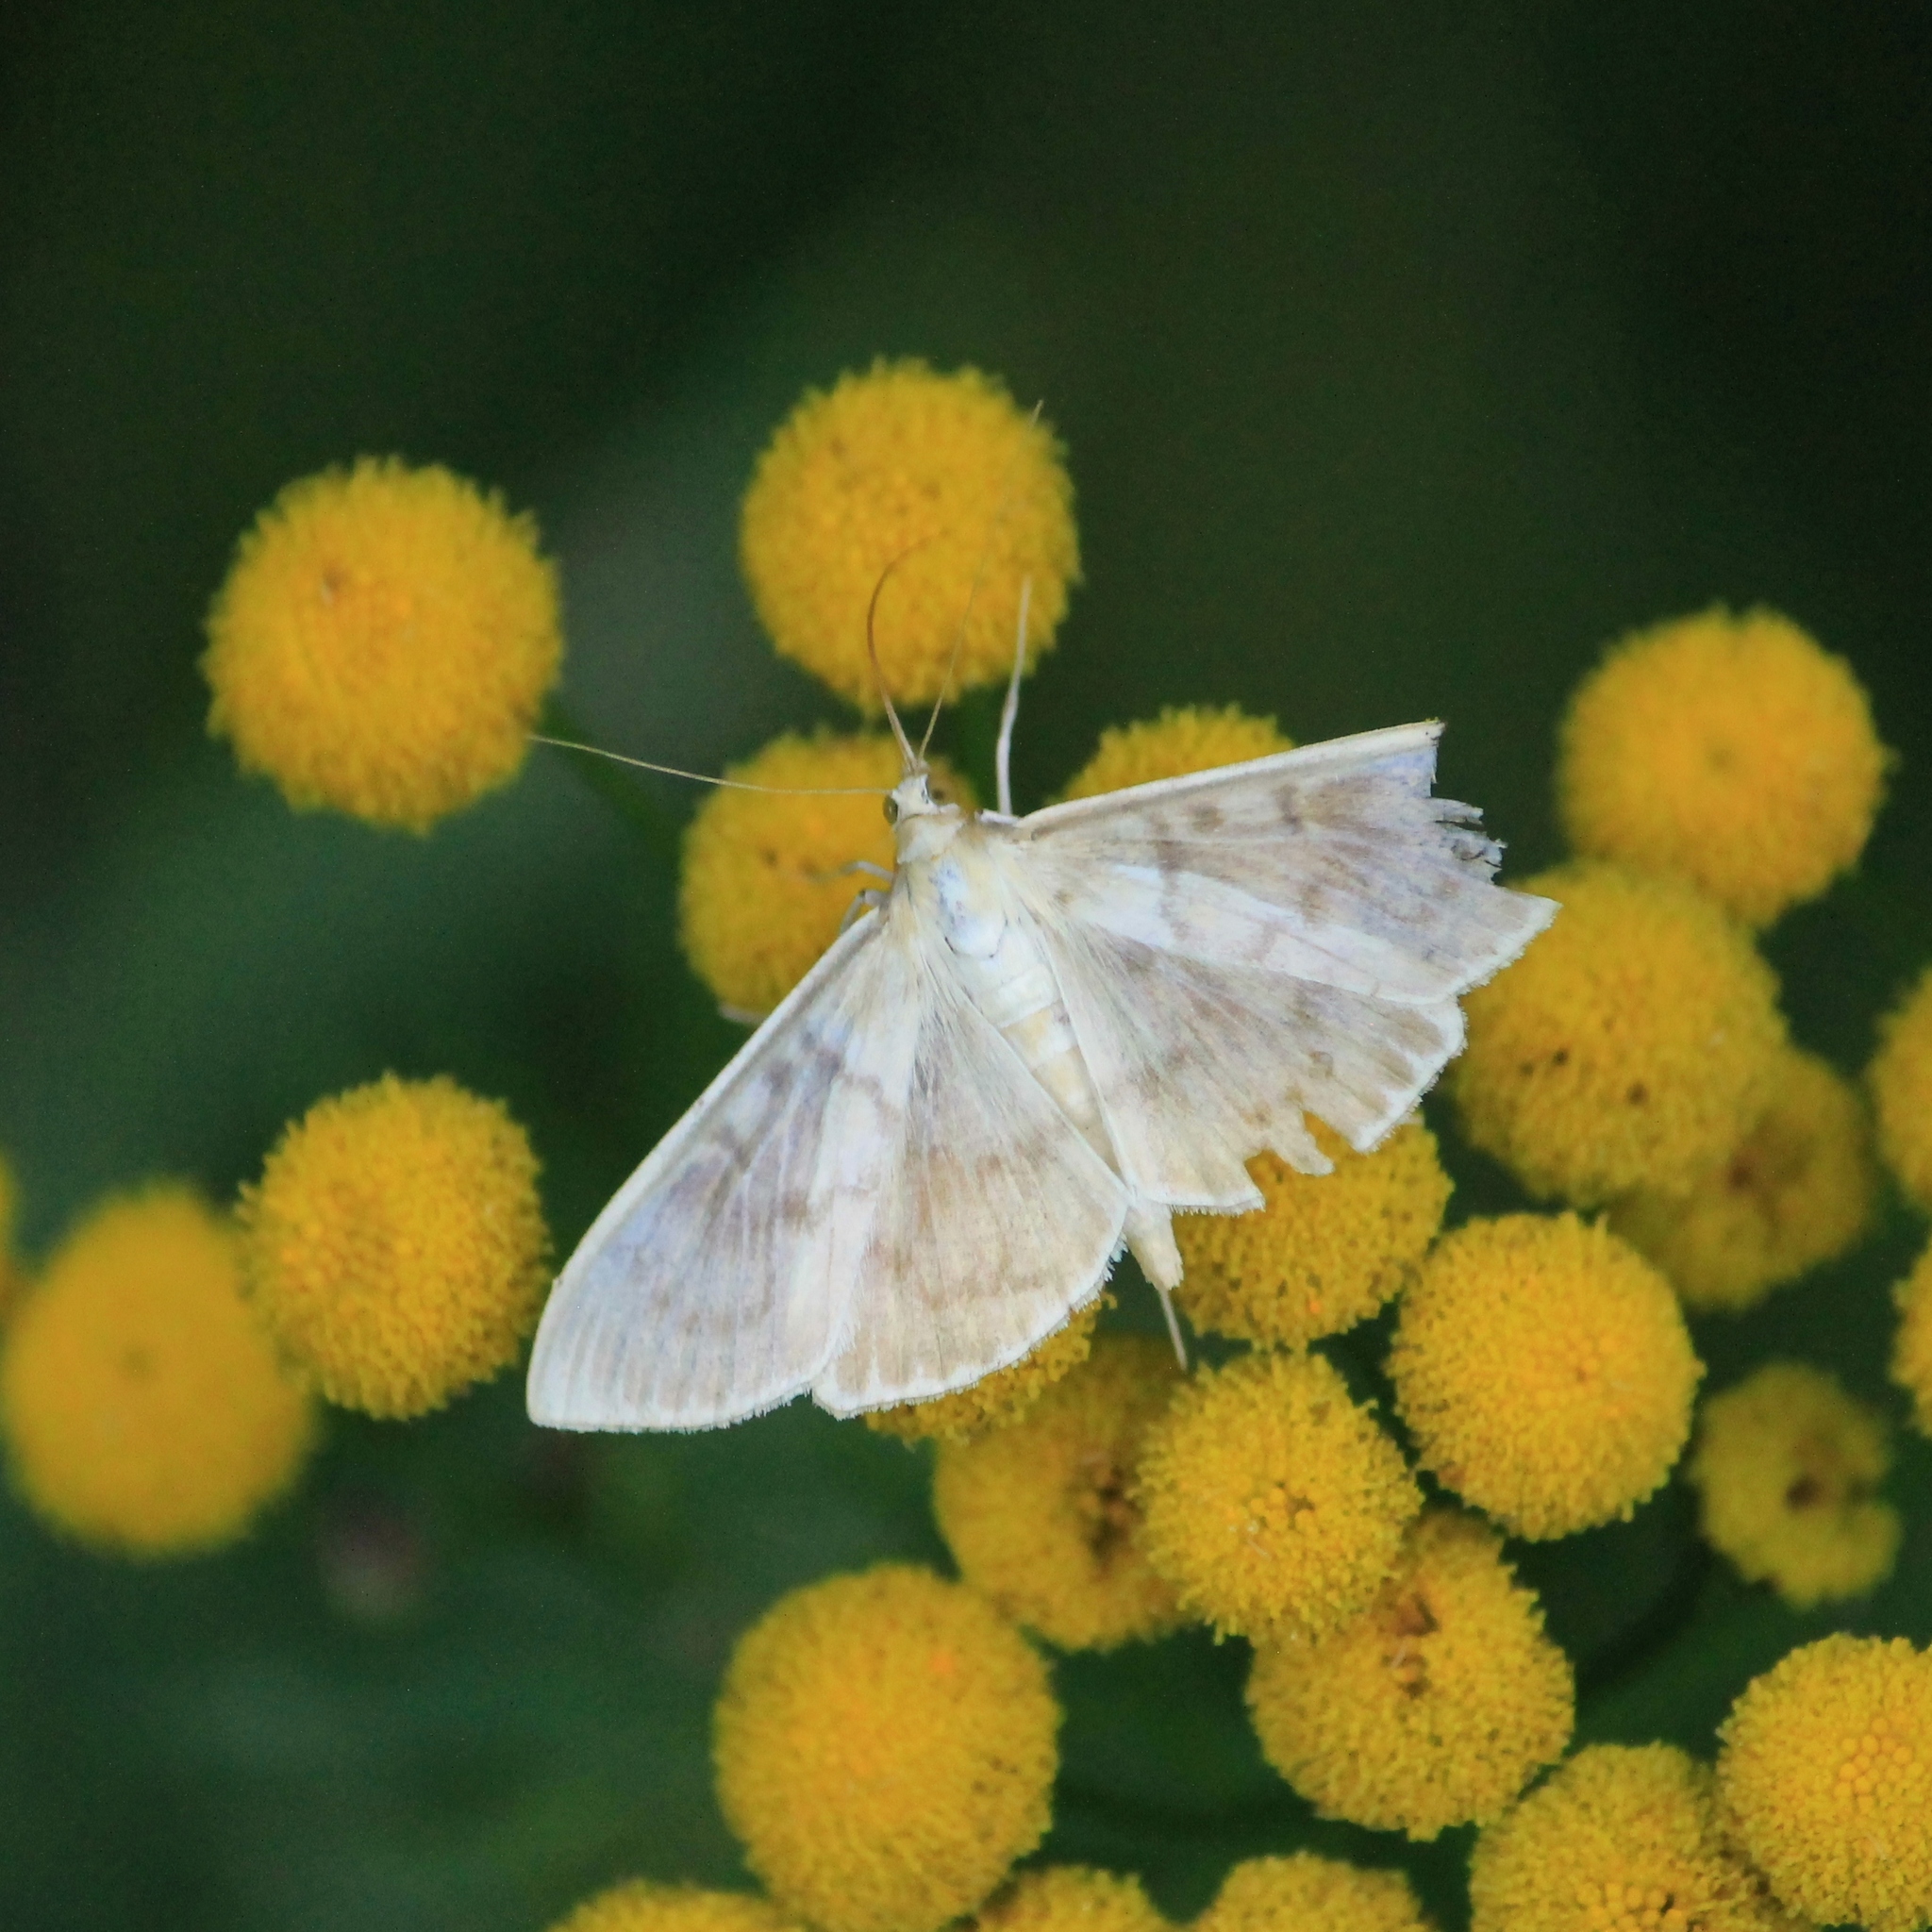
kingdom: Animalia
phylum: Arthropoda
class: Insecta
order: Lepidoptera
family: Crambidae
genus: Patania
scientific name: Patania ruralis
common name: Mother of pearl
